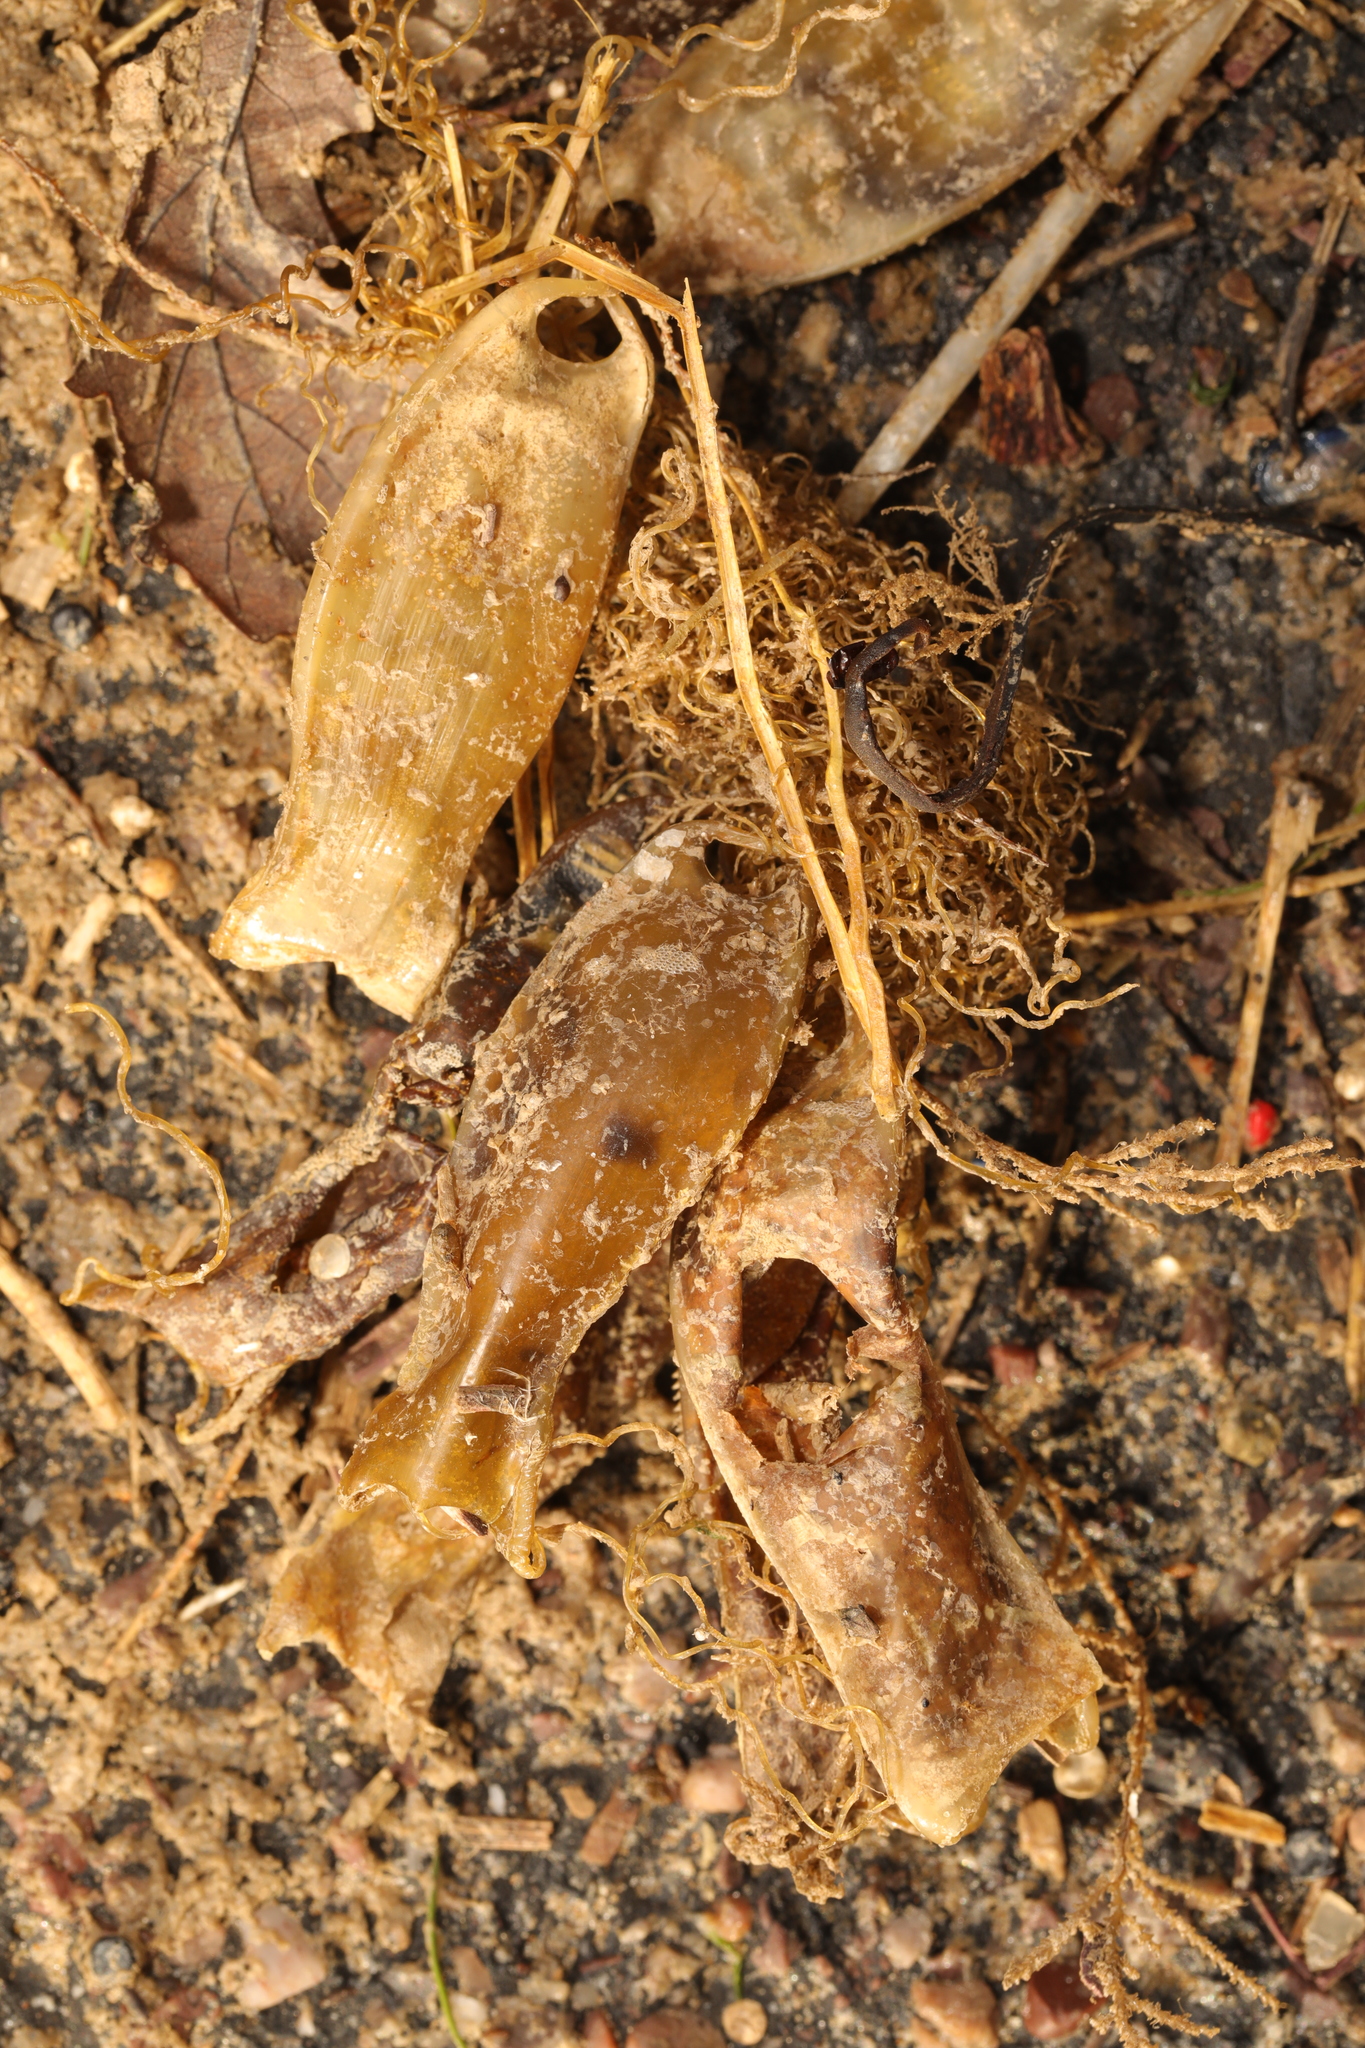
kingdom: Animalia
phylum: Chordata
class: Elasmobranchii
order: Carcharhiniformes
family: Scyliorhinidae
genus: Scyliorhinus
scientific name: Scyliorhinus canicula
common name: Lesser spotted dogfish
